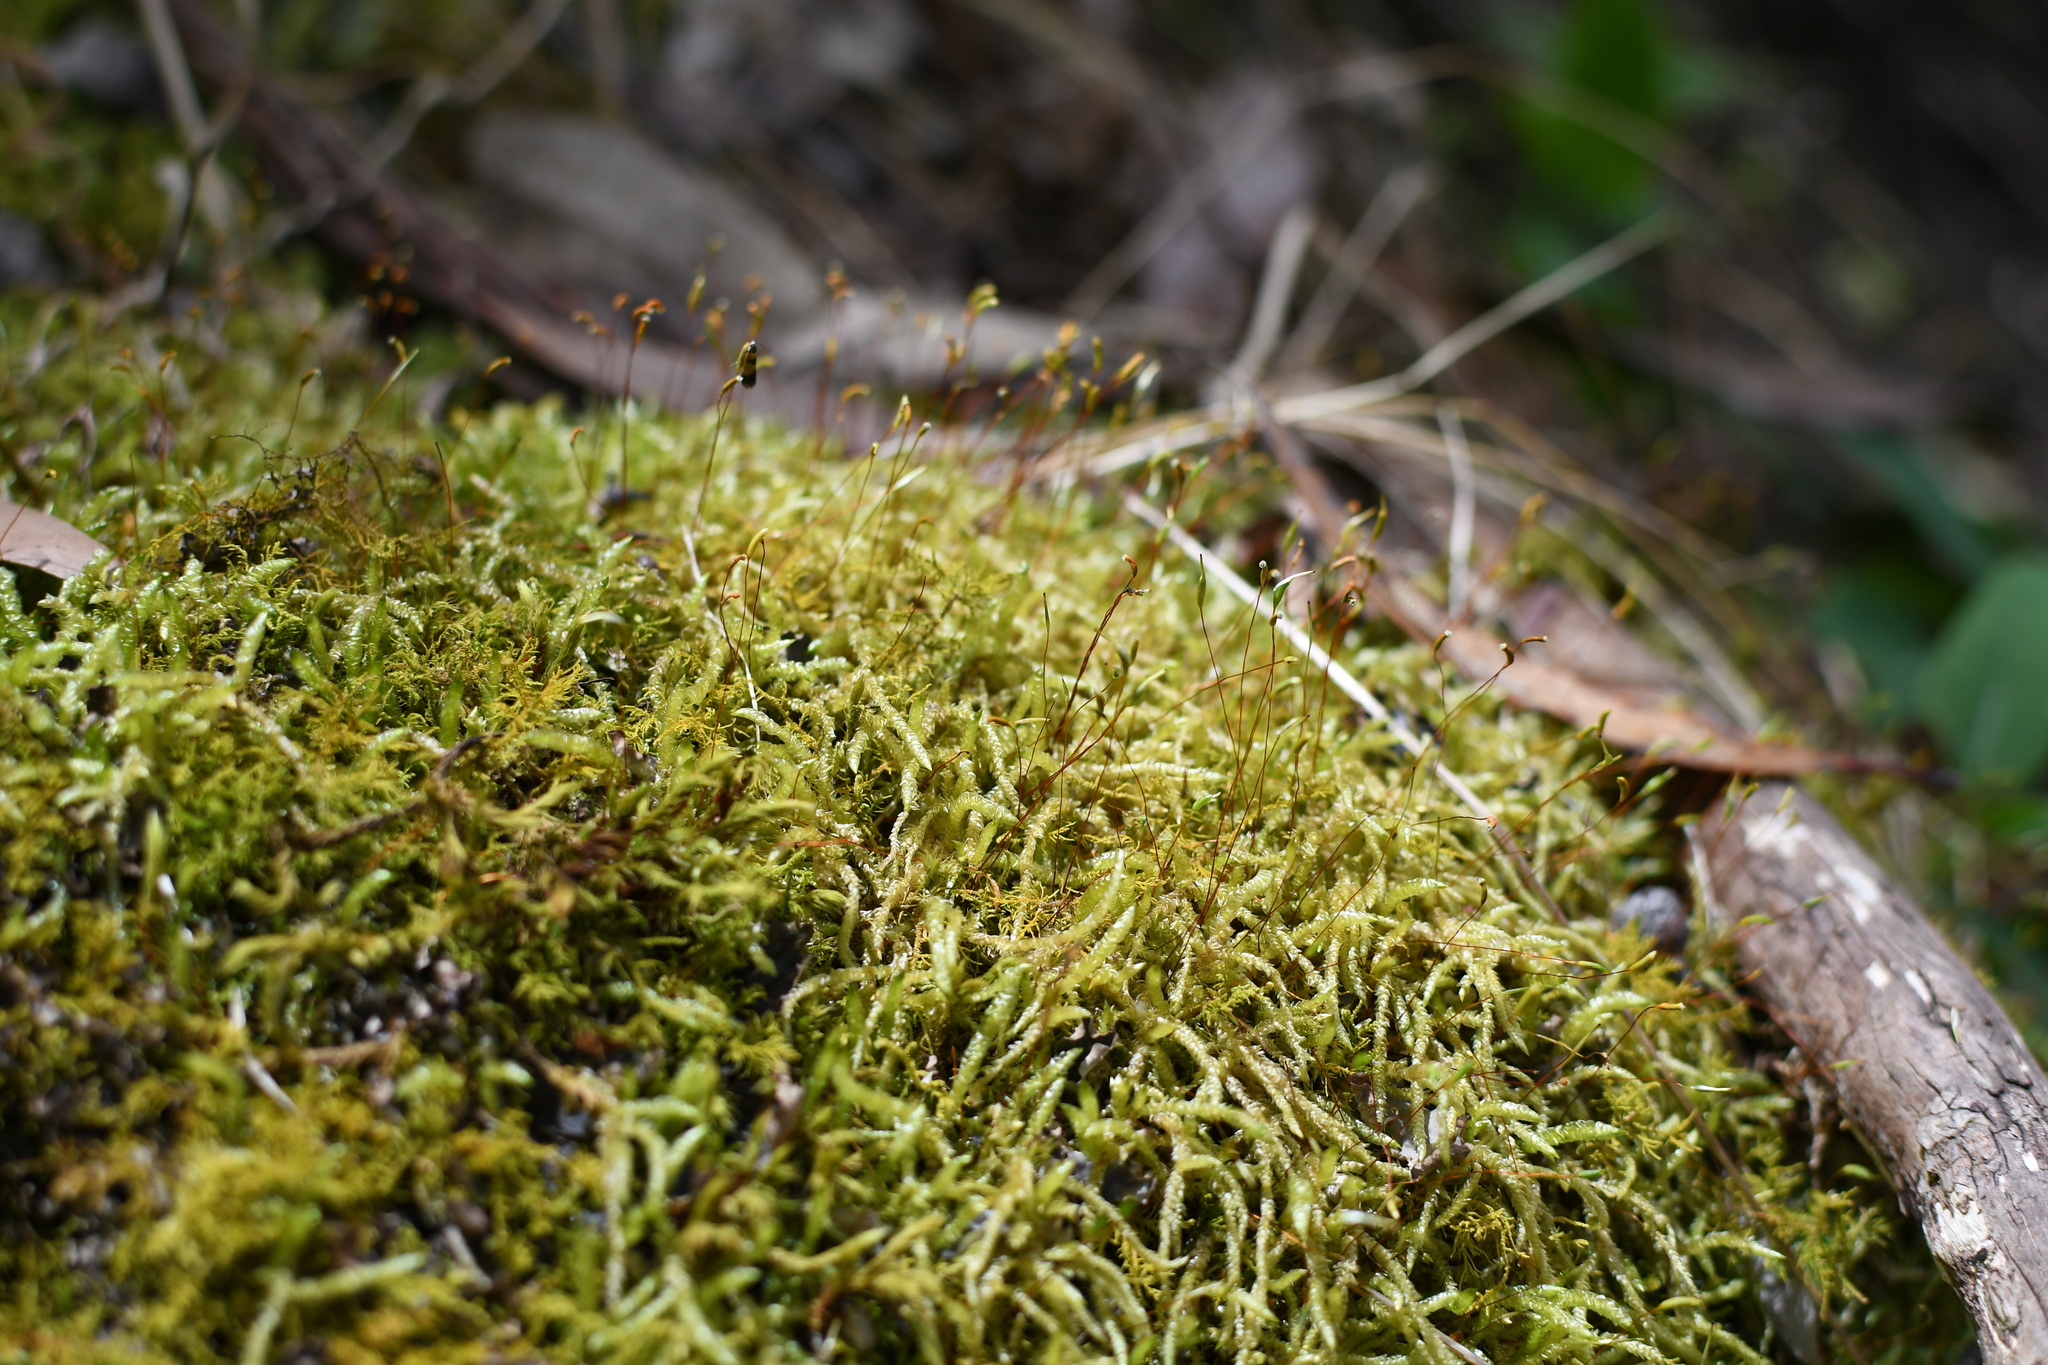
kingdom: Plantae
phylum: Bryophyta
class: Bryopsida
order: Hypnales
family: Acrocladiaceae
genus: Acrocladium
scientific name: Acrocladium chlamydophyllum
